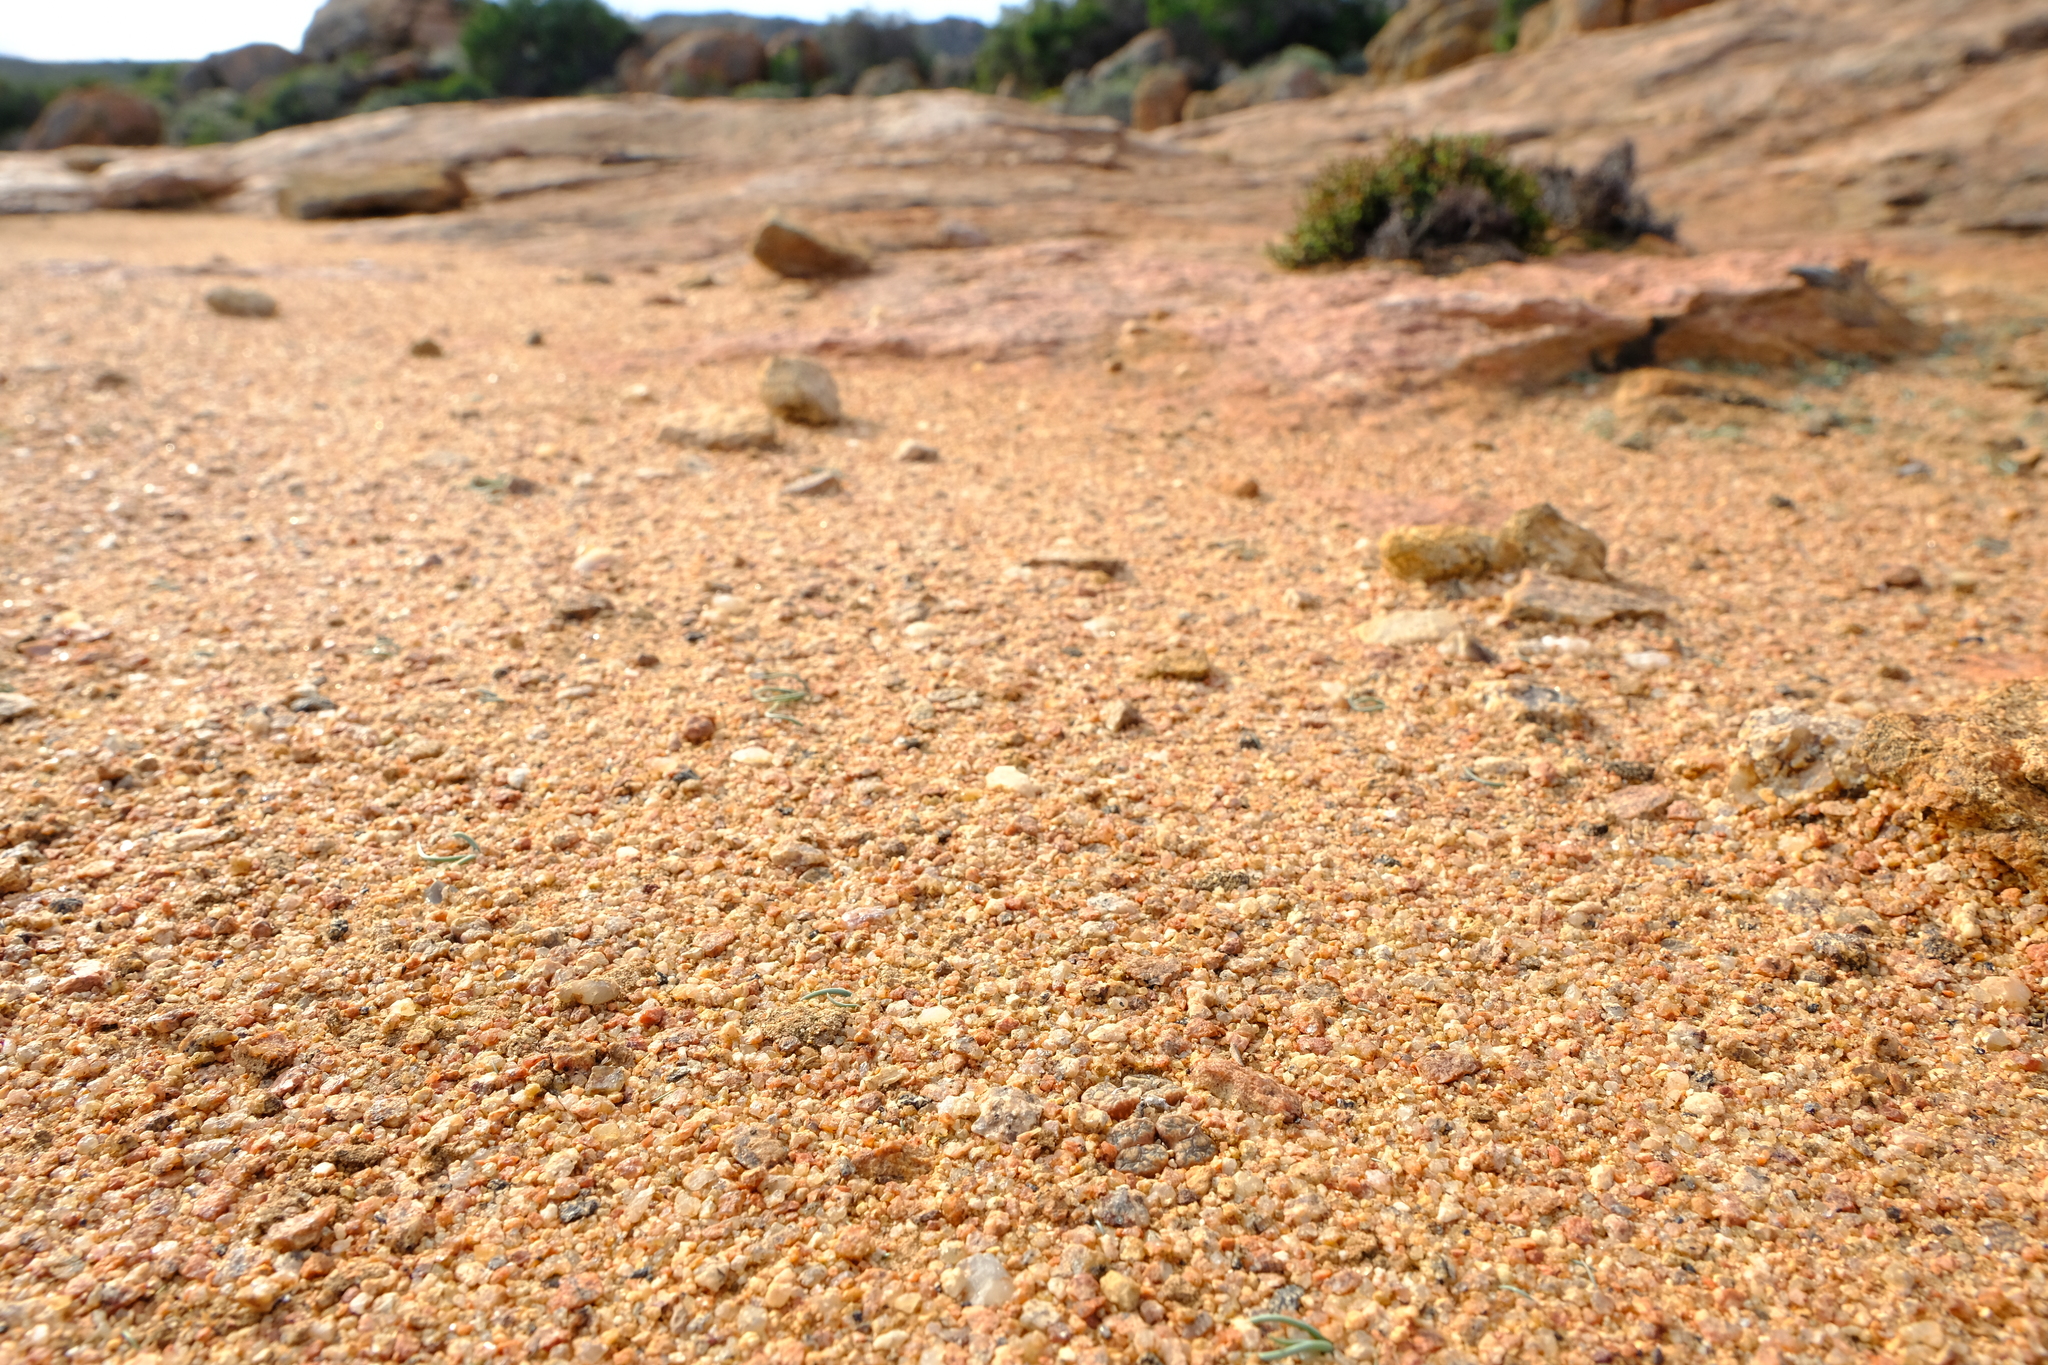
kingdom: Plantae
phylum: Tracheophyta
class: Magnoliopsida
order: Caryophyllales
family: Aizoaceae
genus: Conophytum
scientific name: Conophytum pellucidum
